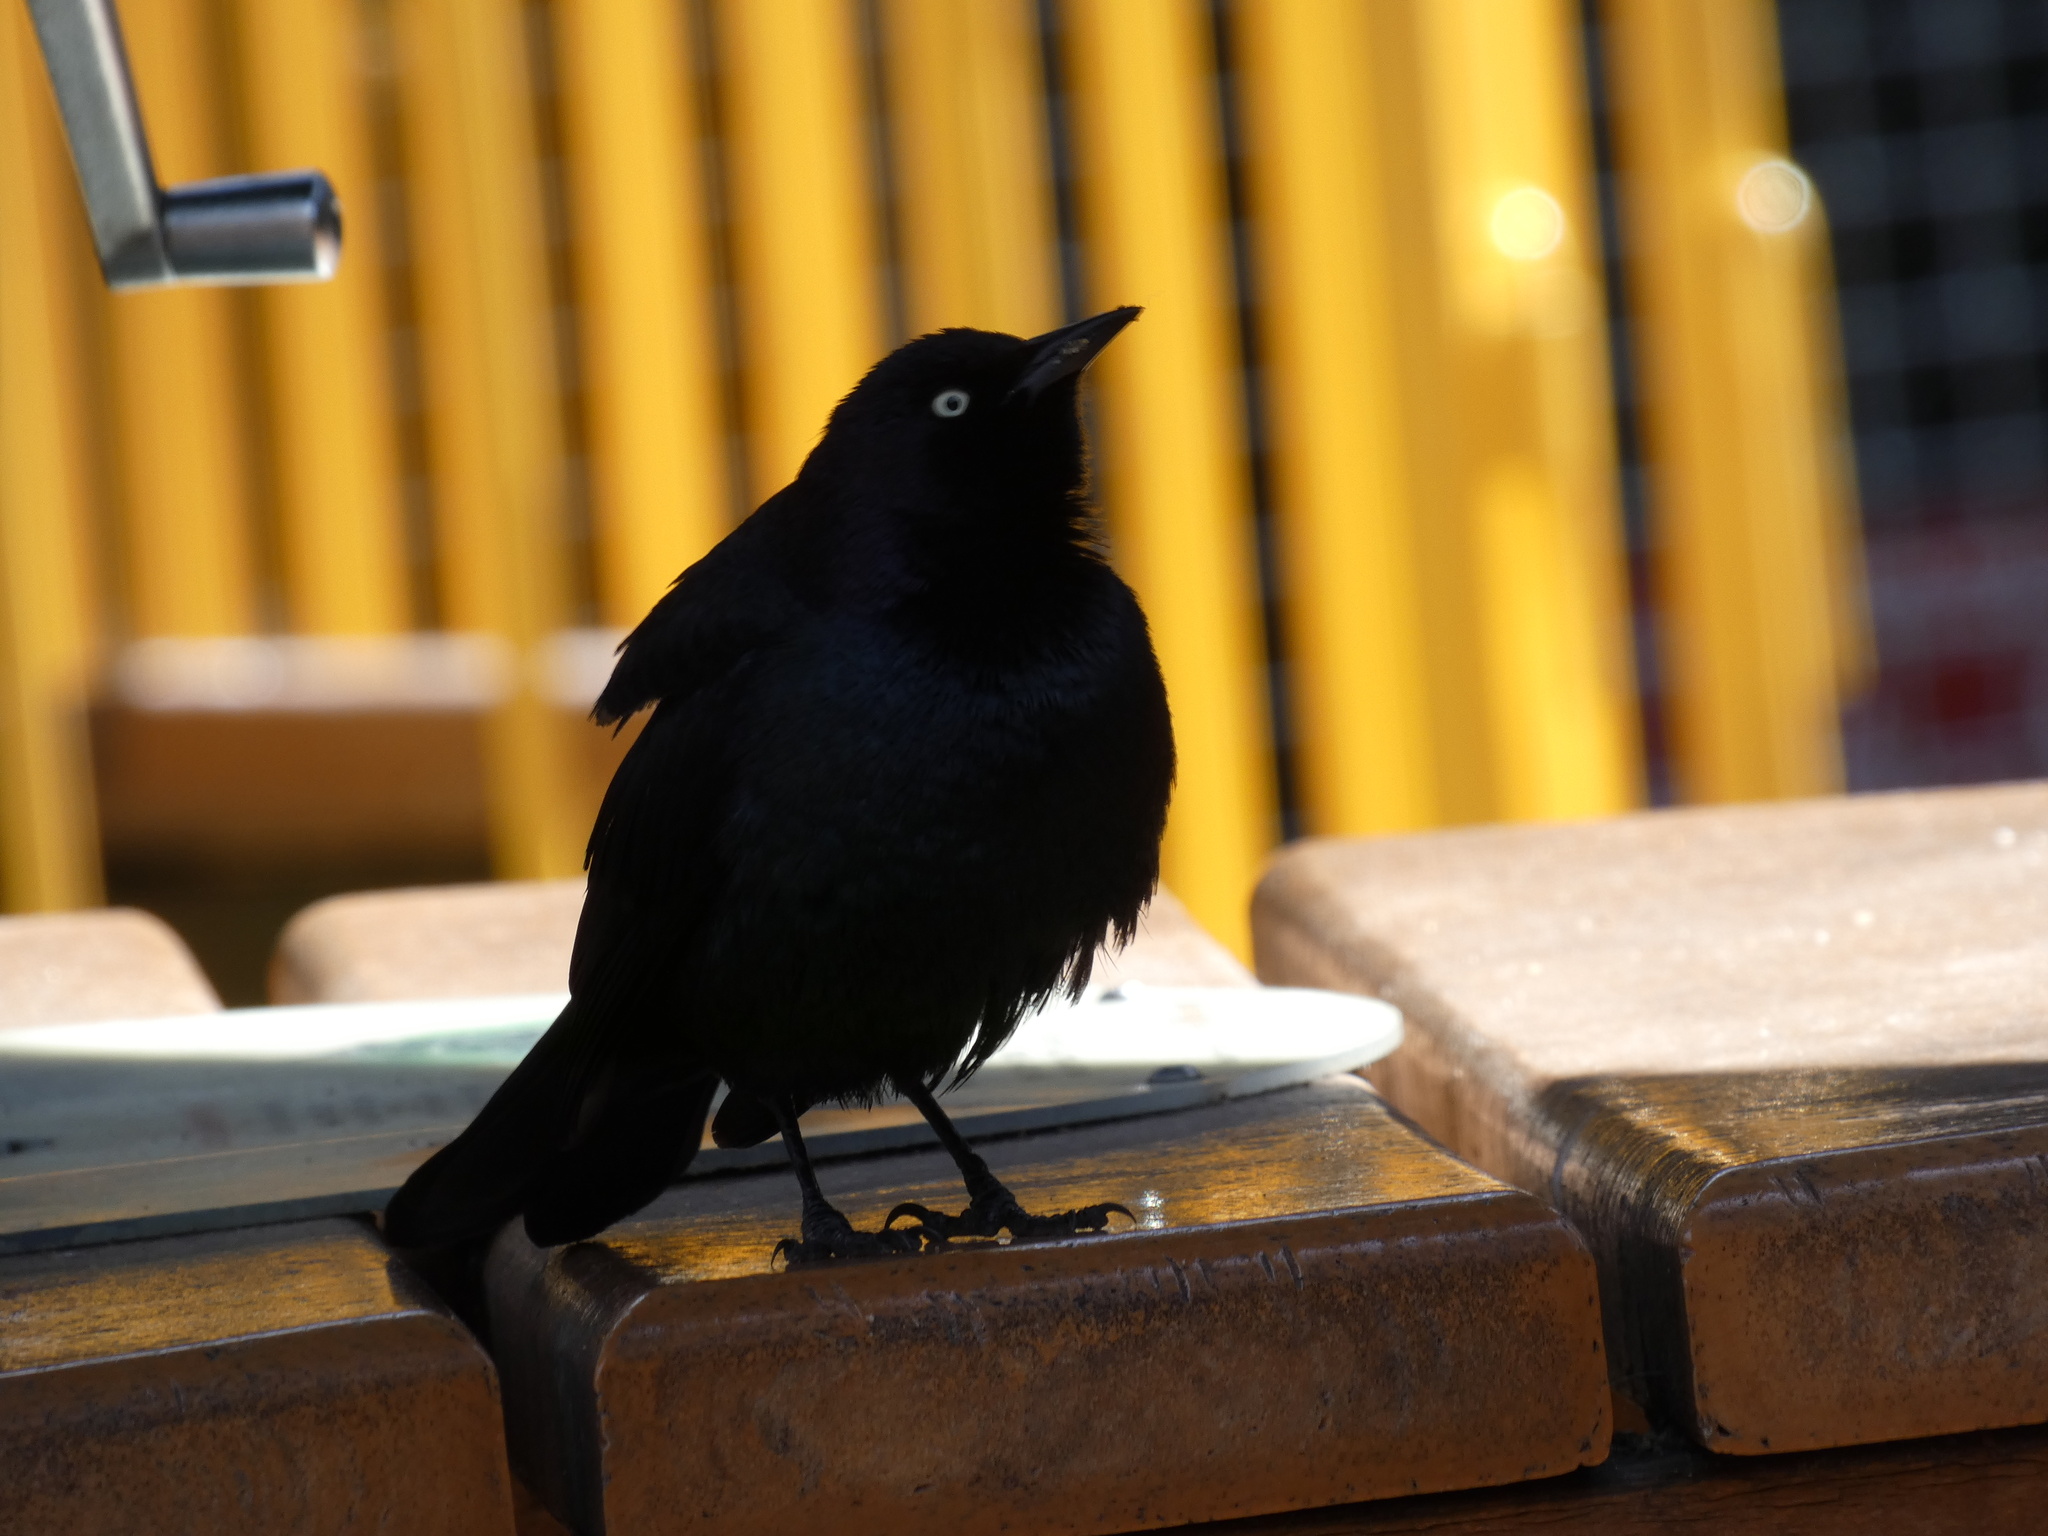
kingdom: Animalia
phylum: Chordata
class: Aves
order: Passeriformes
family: Icteridae
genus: Euphagus
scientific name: Euphagus cyanocephalus
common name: Brewer's blackbird
